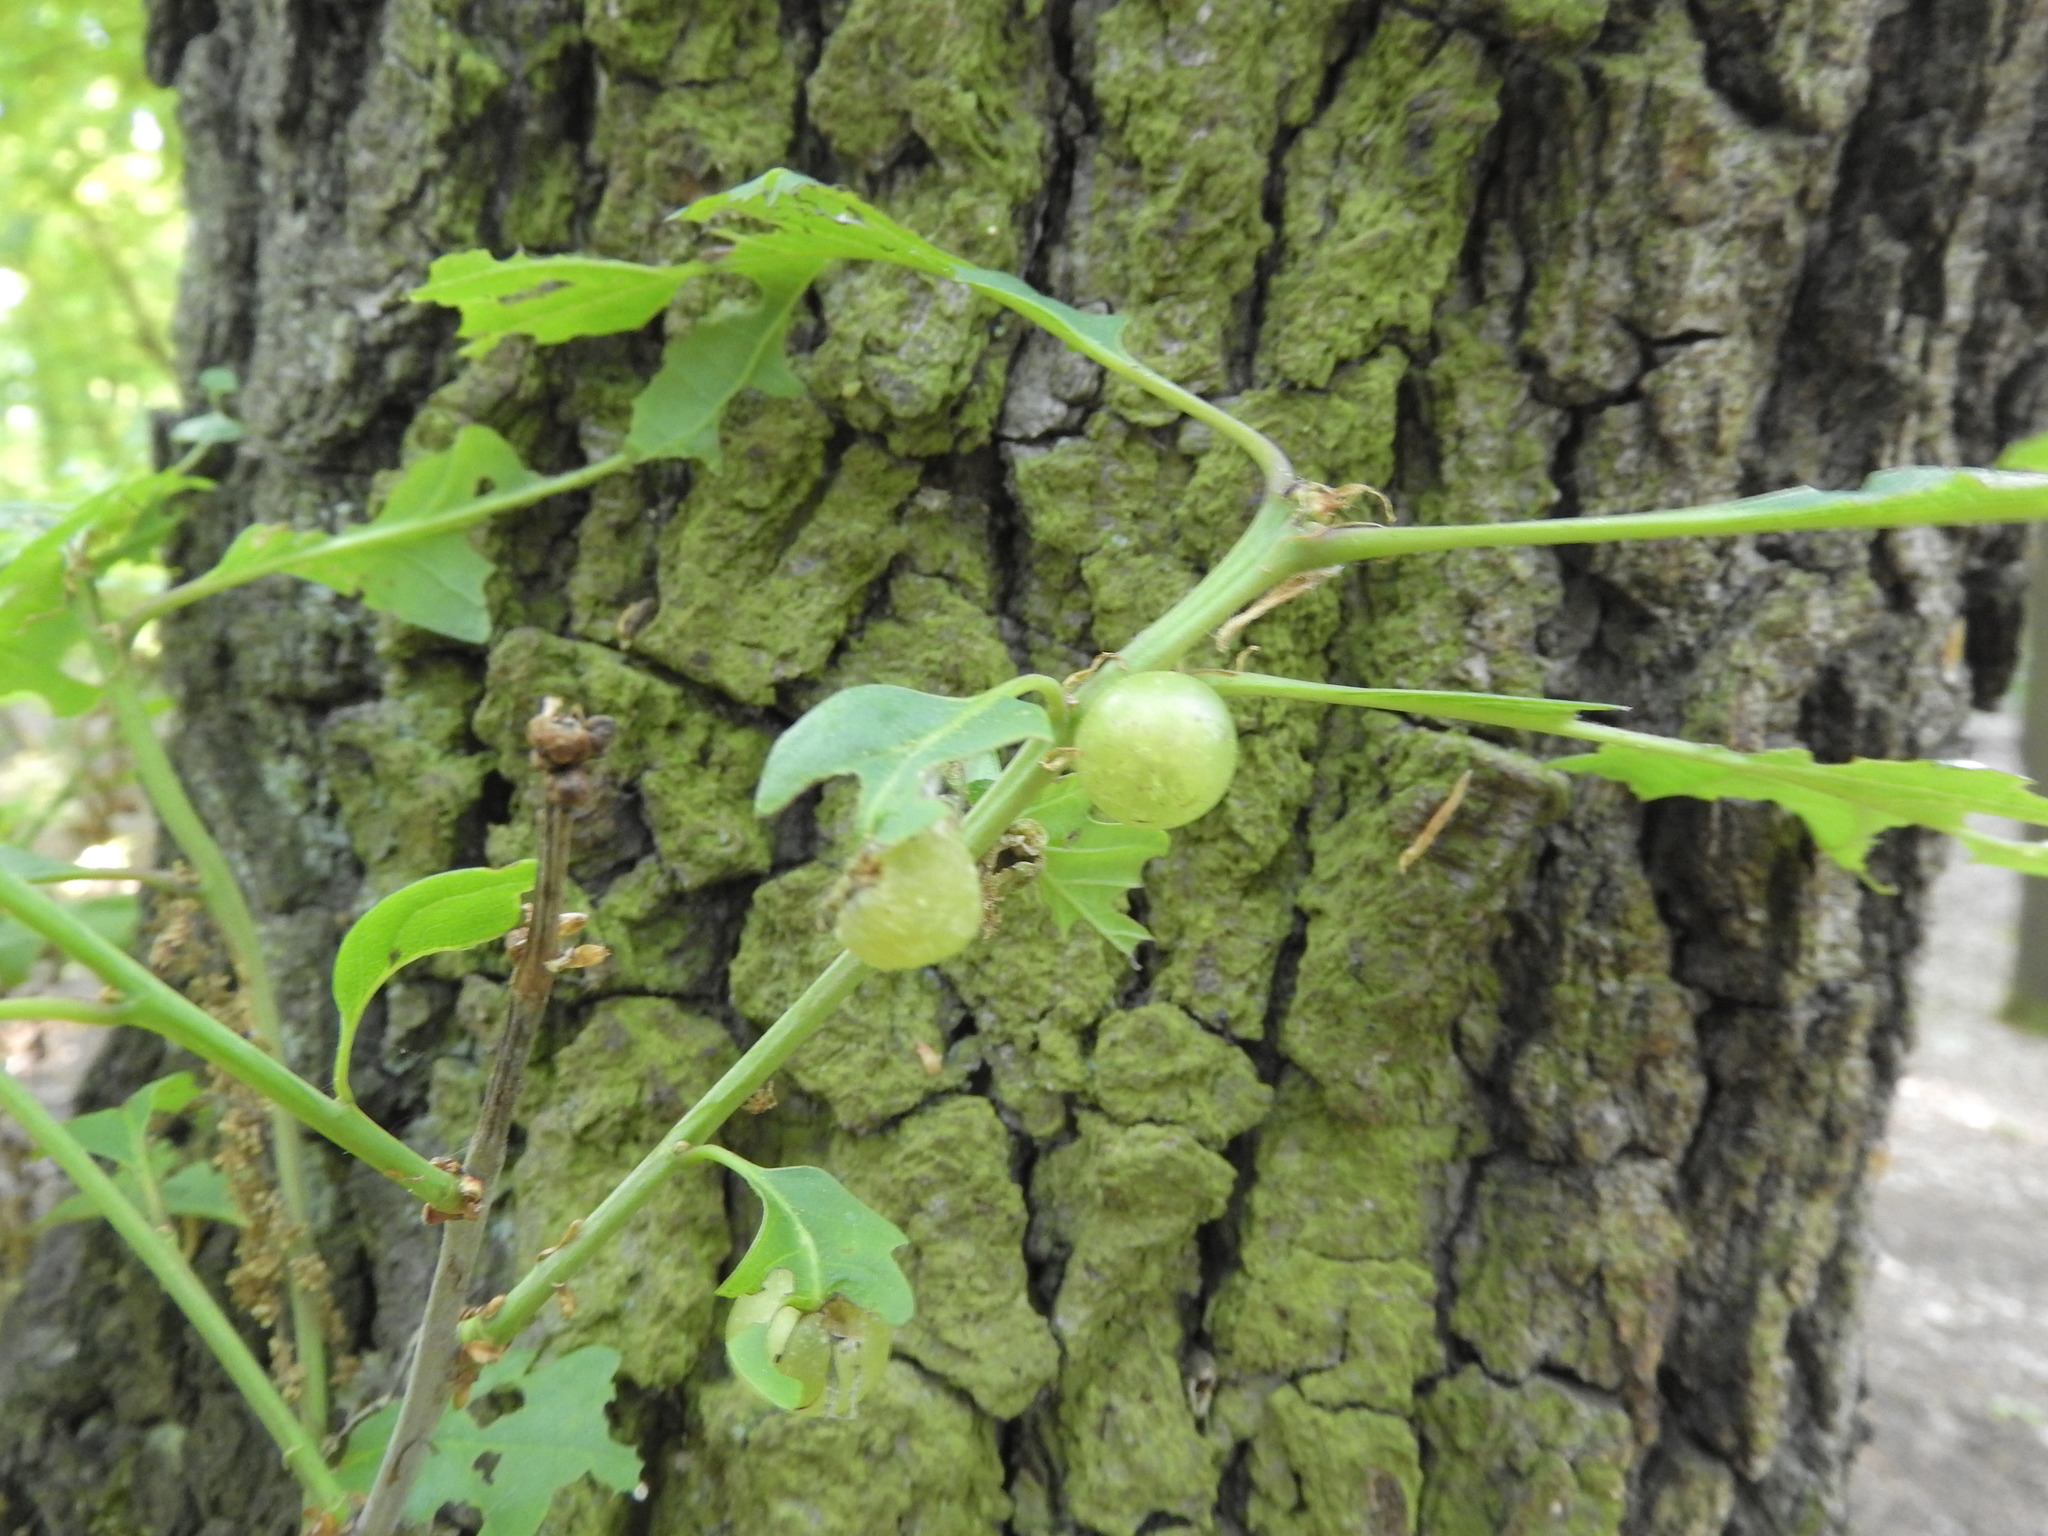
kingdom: Animalia
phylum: Arthropoda
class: Insecta
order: Hymenoptera
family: Cynipidae
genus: Neuroterus
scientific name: Neuroterus quercusbaccarum
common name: Common spangle gall
